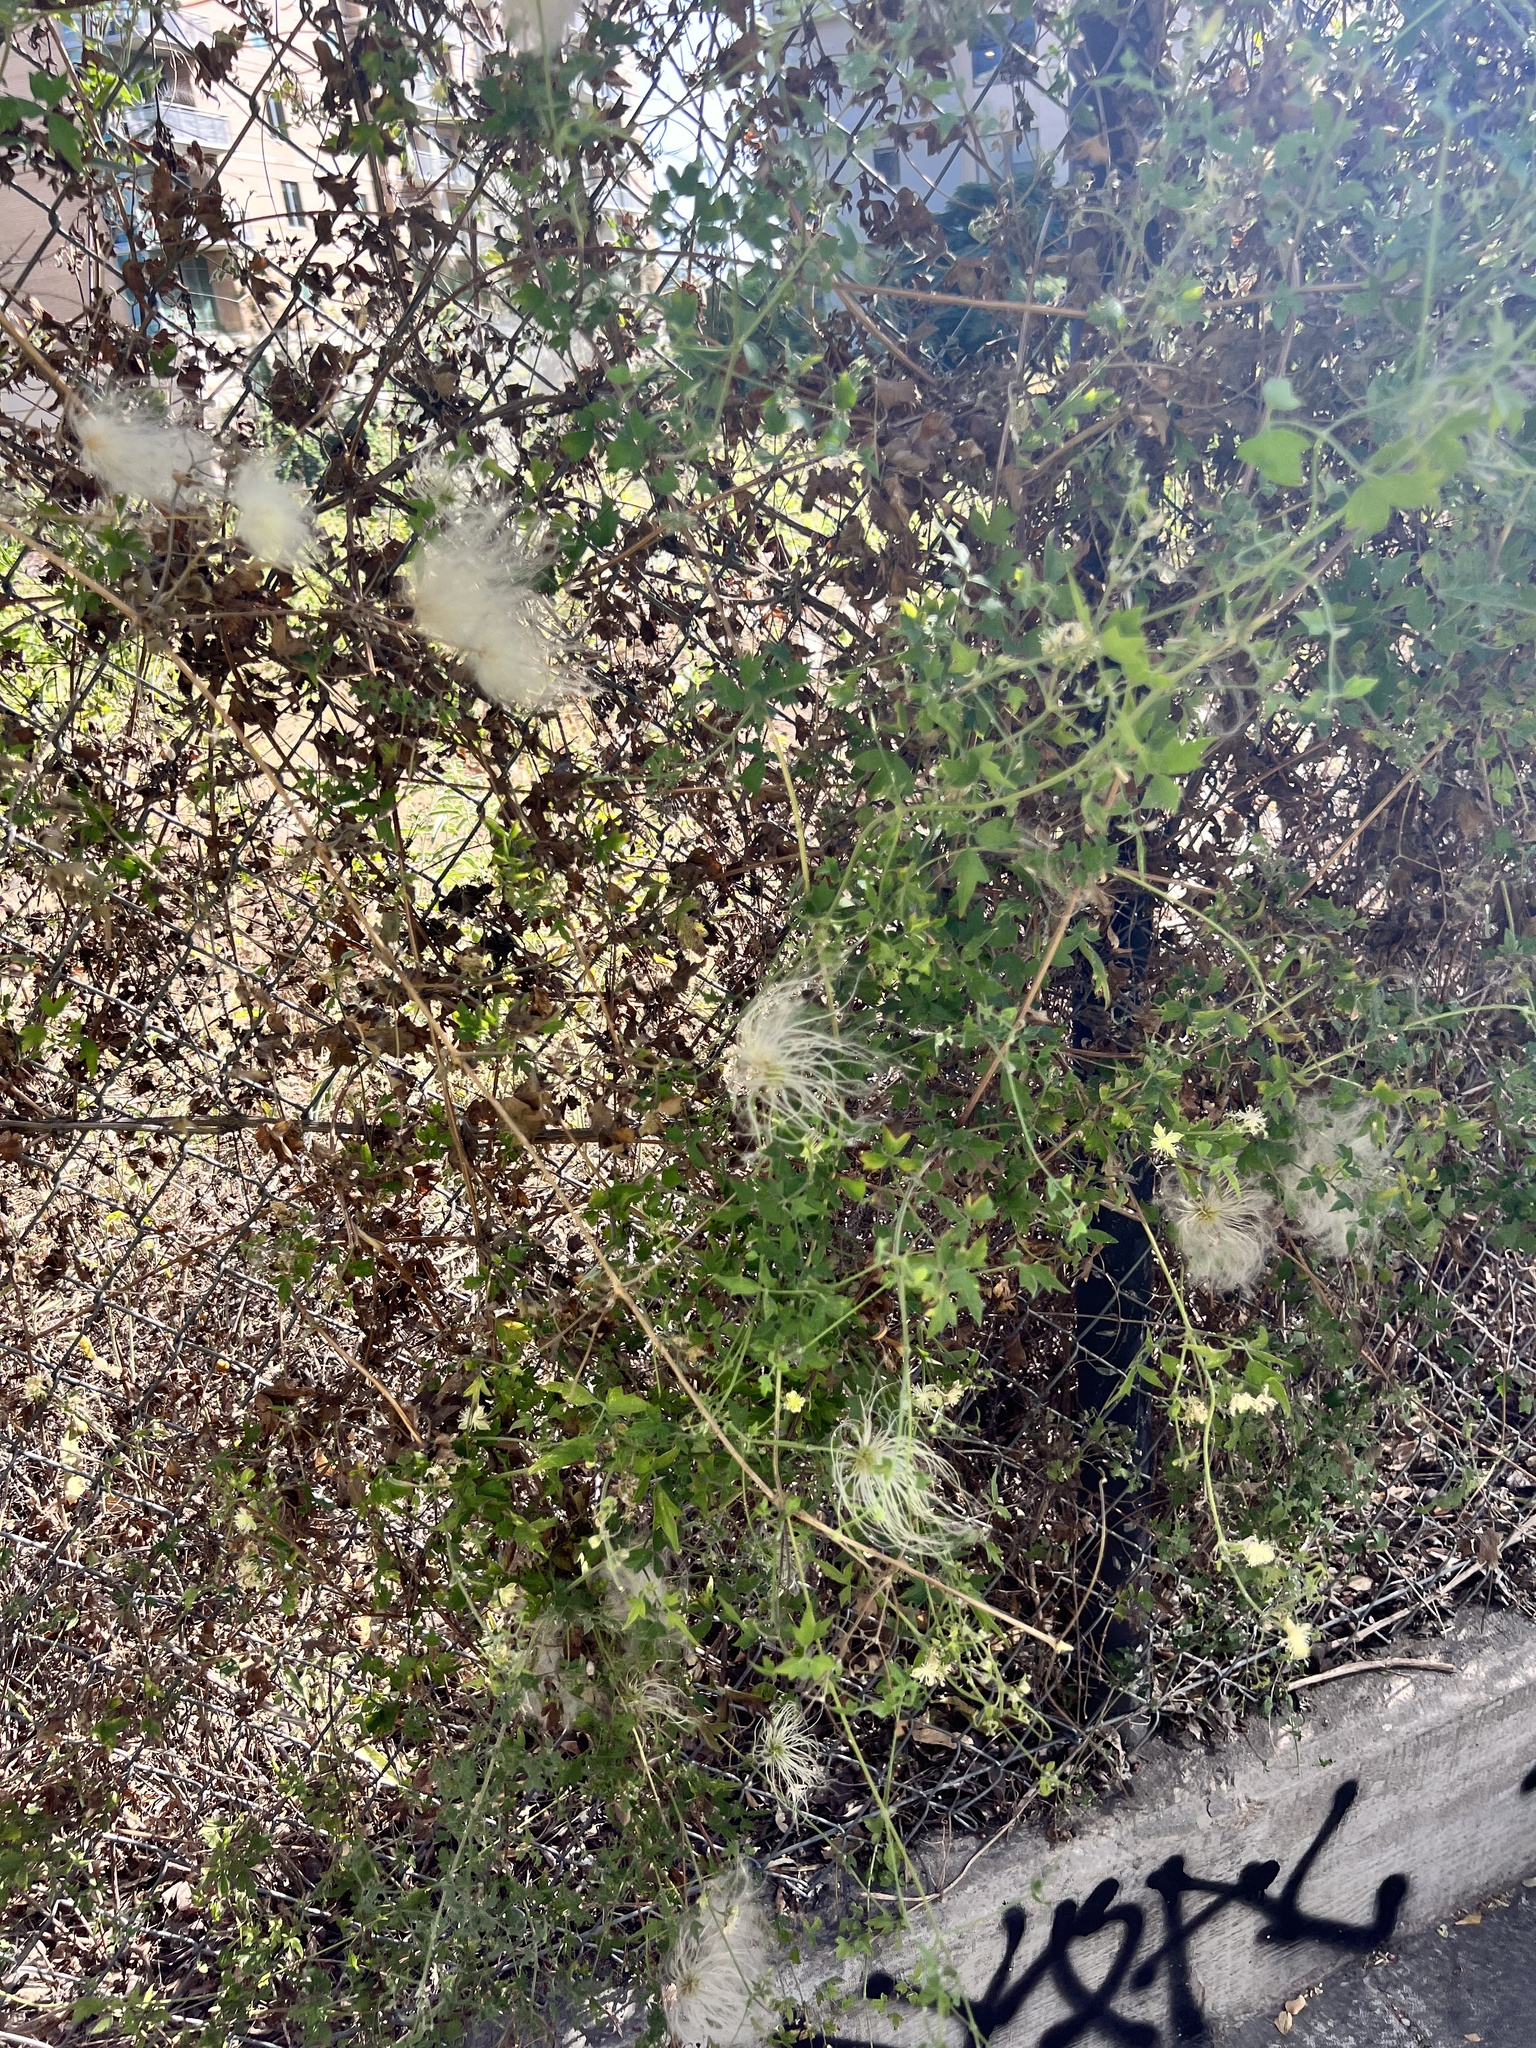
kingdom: Plantae
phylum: Tracheophyta
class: Magnoliopsida
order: Ranunculales
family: Ranunculaceae
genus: Clematis
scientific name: Clematis drummondii
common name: Texas virgin's bower
